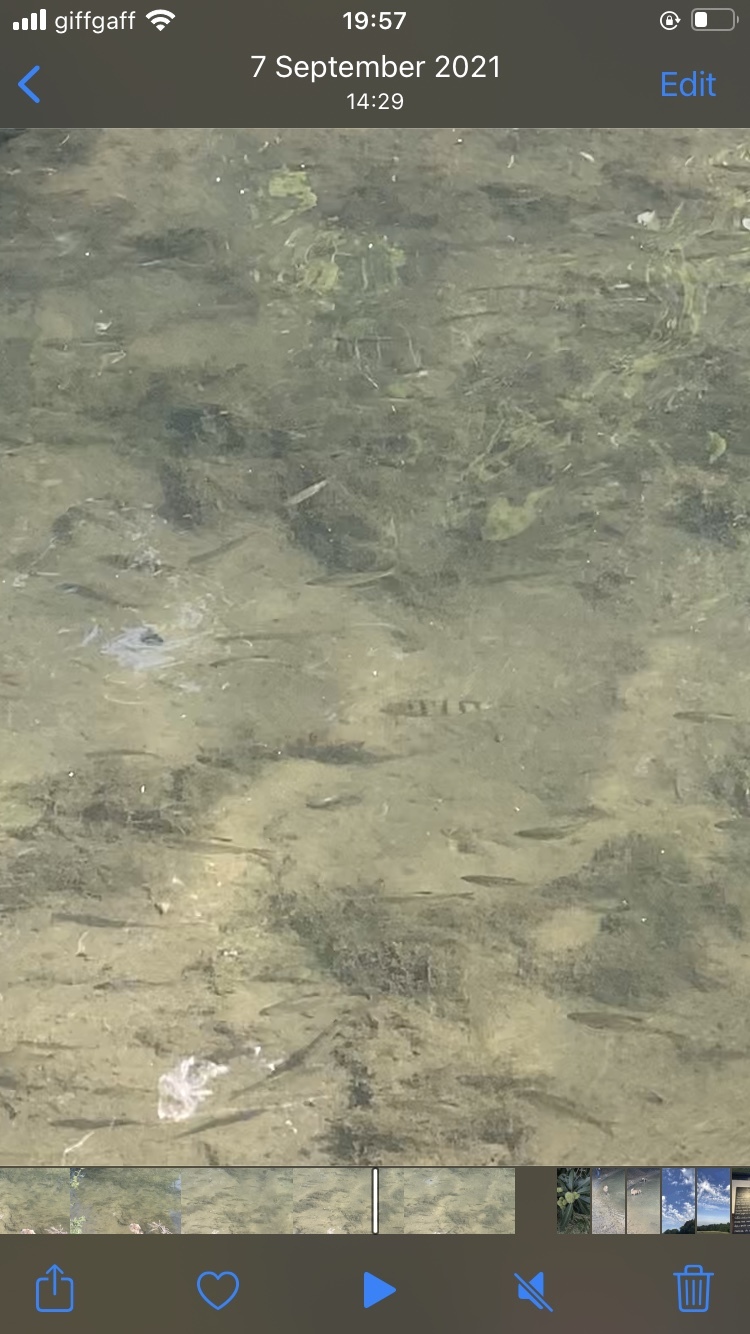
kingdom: Animalia
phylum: Chordata
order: Perciformes
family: Percidae
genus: Perca
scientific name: Perca fluviatilis
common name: Perch
